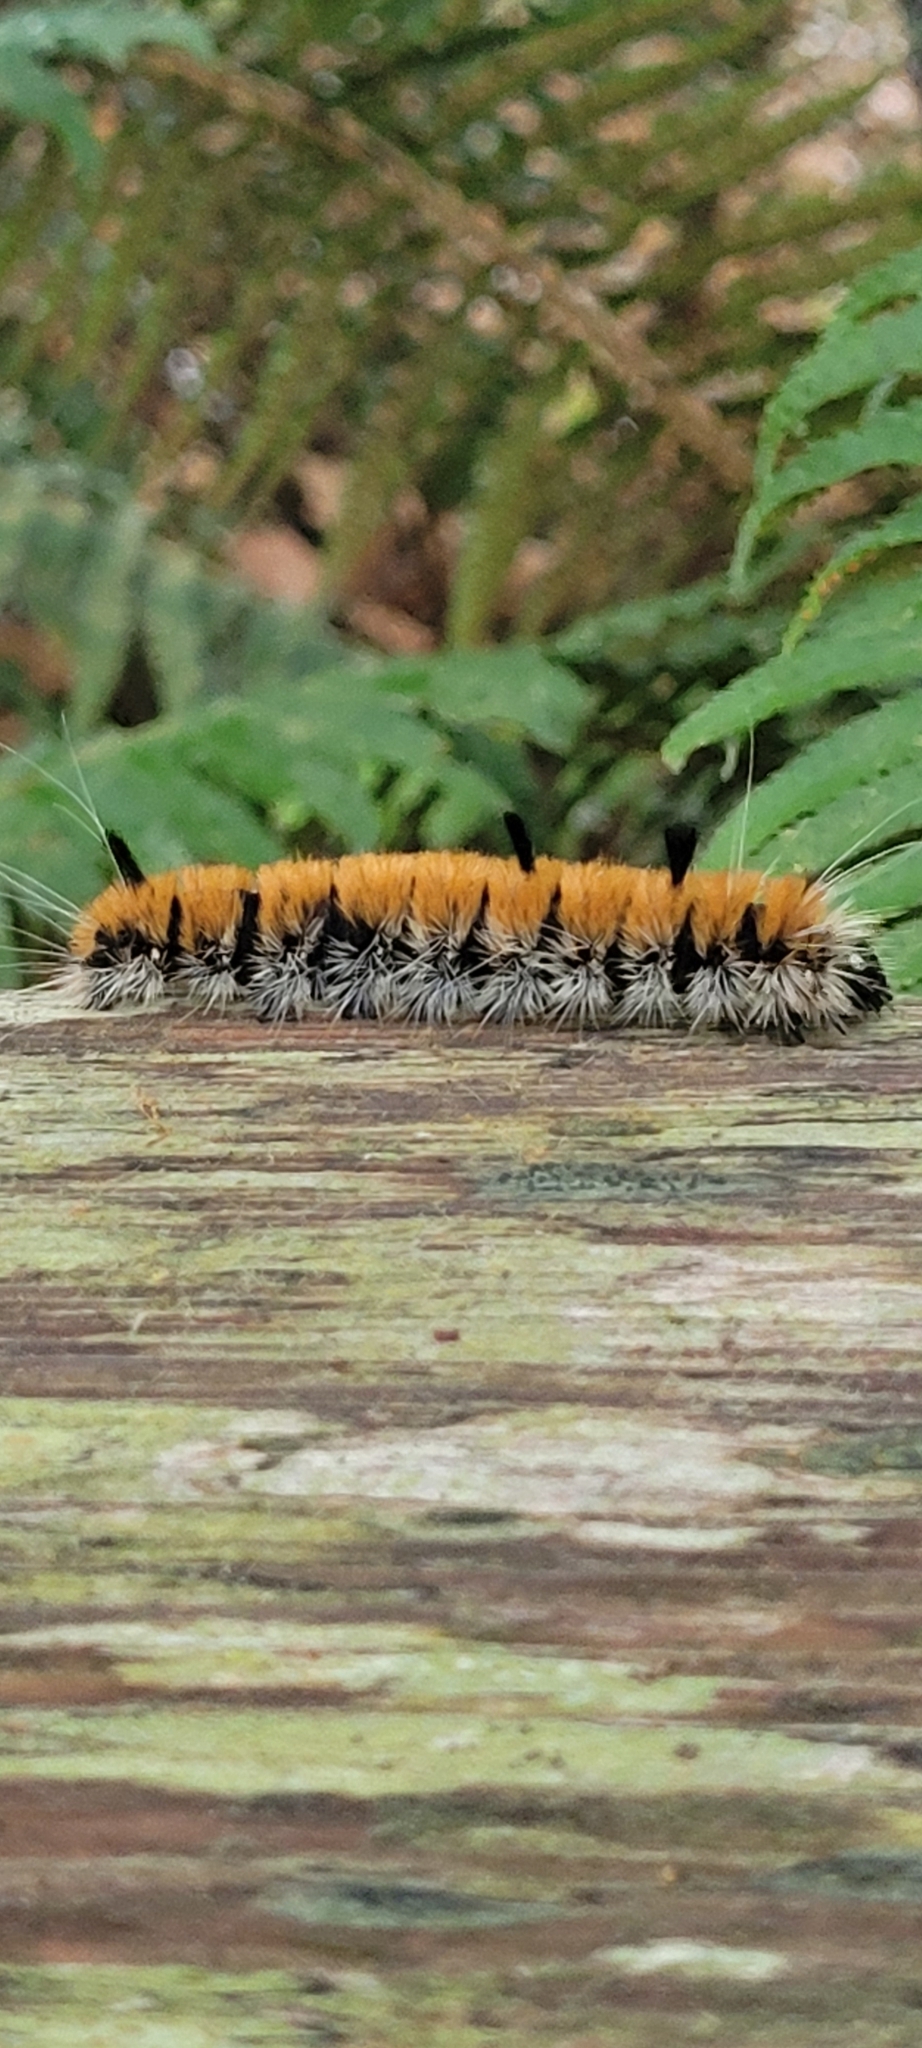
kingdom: Animalia
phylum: Arthropoda
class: Insecta
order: Lepidoptera
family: Noctuidae
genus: Acronicta
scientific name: Acronicta insita
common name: Large gray dagger
